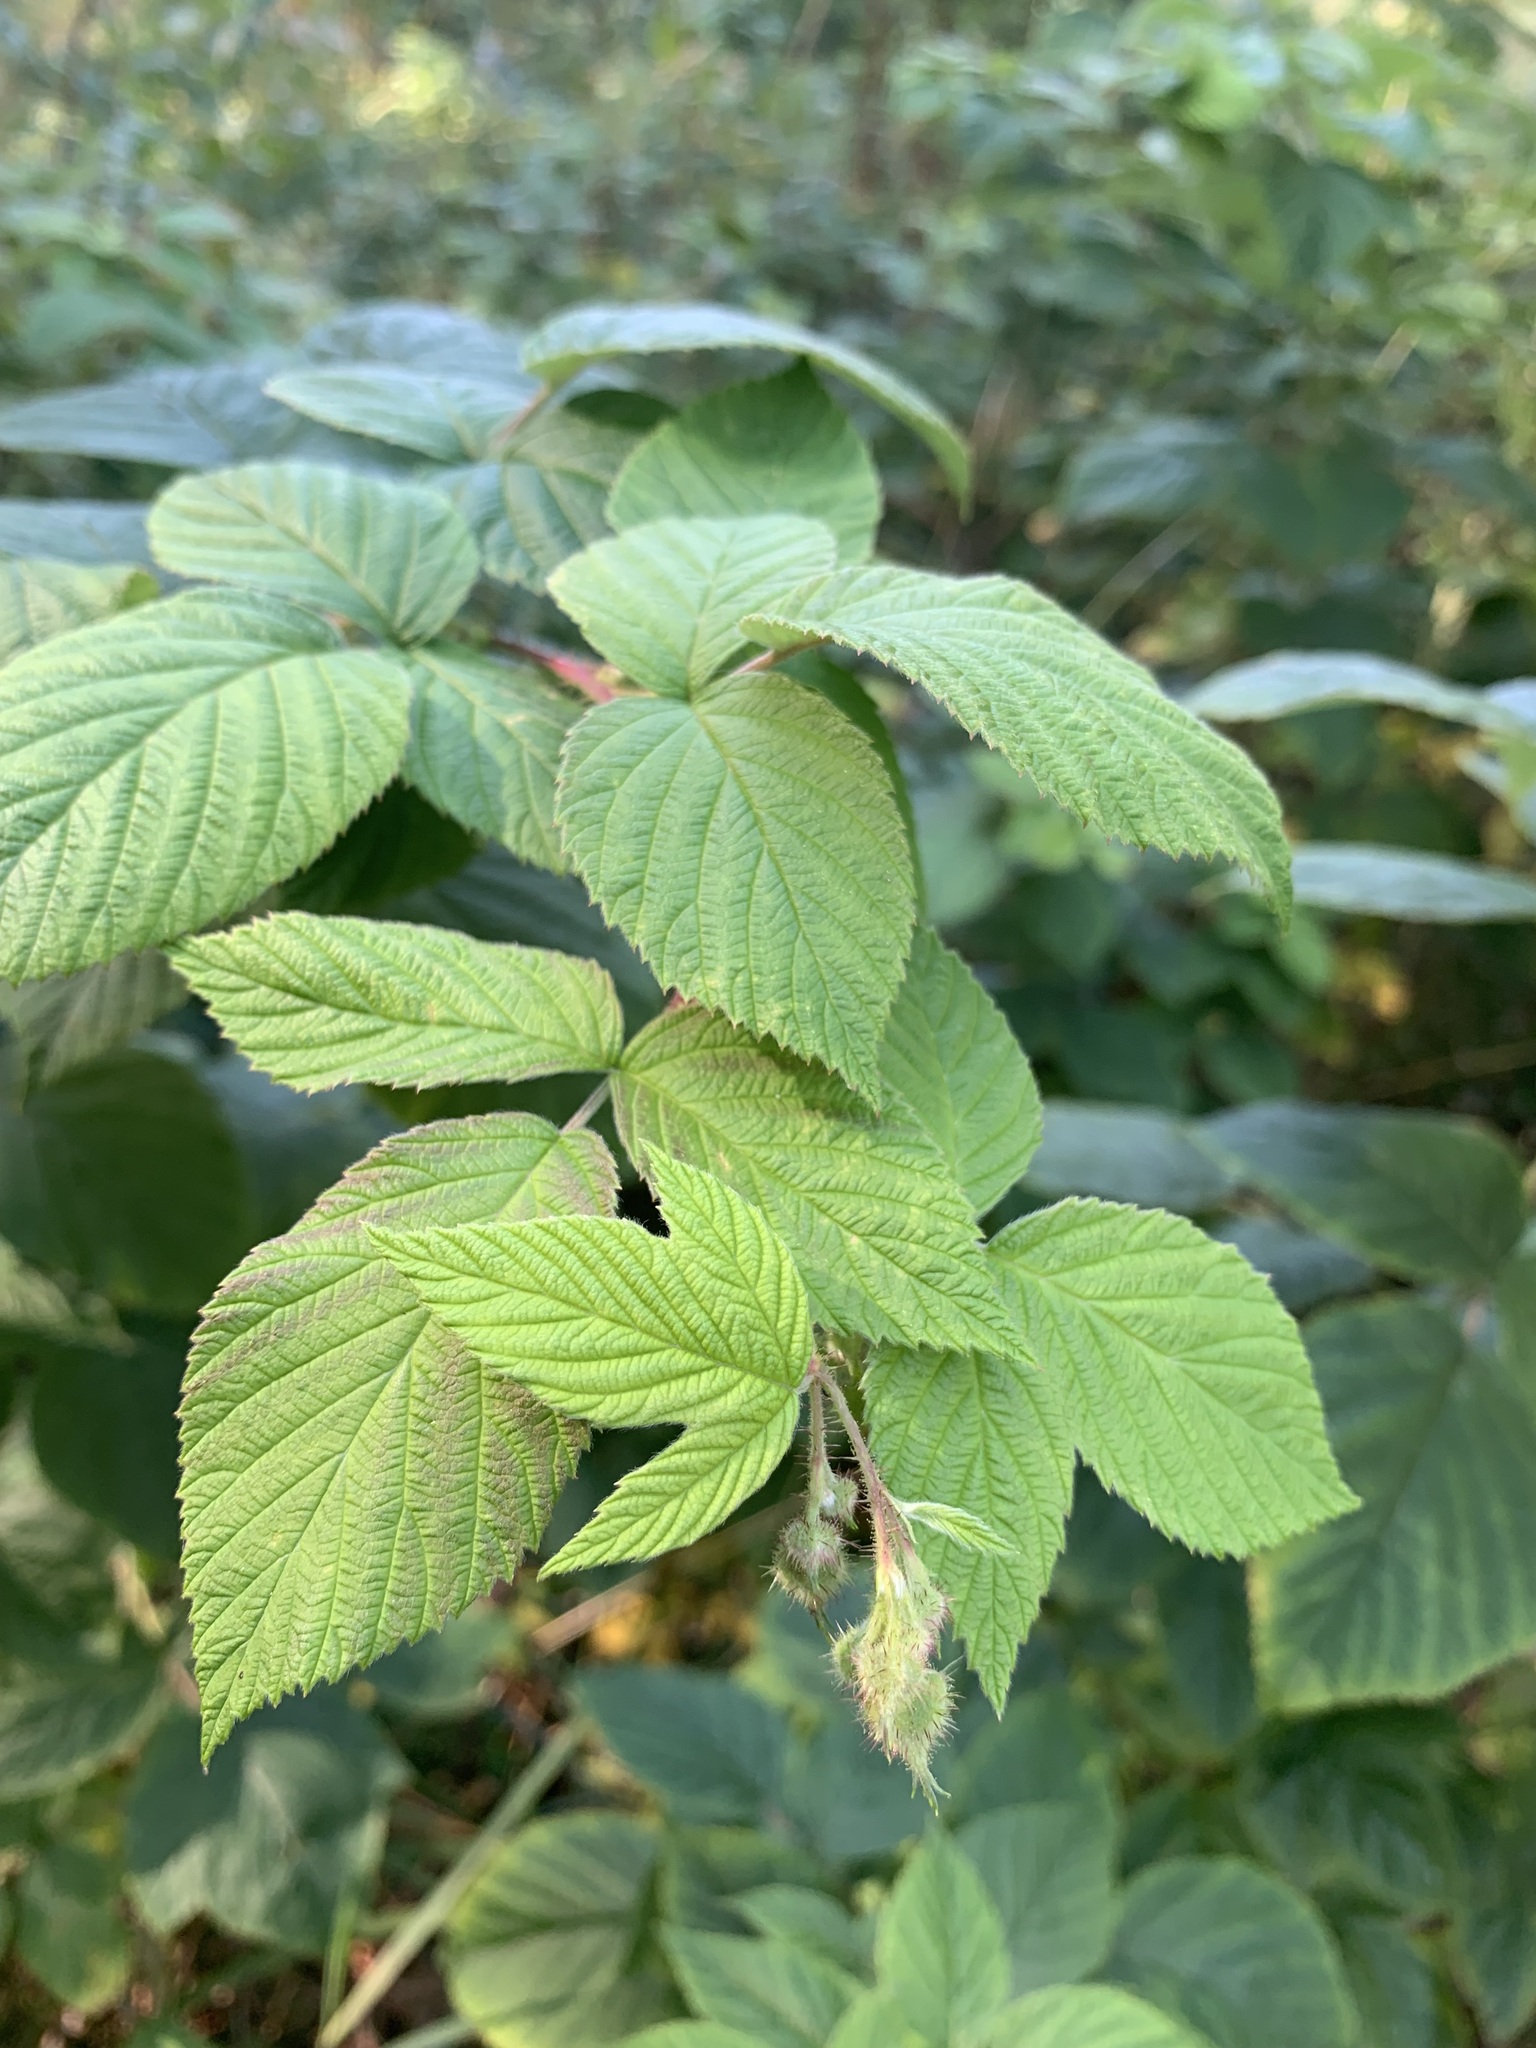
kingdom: Plantae
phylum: Tracheophyta
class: Magnoliopsida
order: Rosales
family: Rosaceae
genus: Rubus
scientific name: Rubus sachalinensis
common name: Red raspberry
